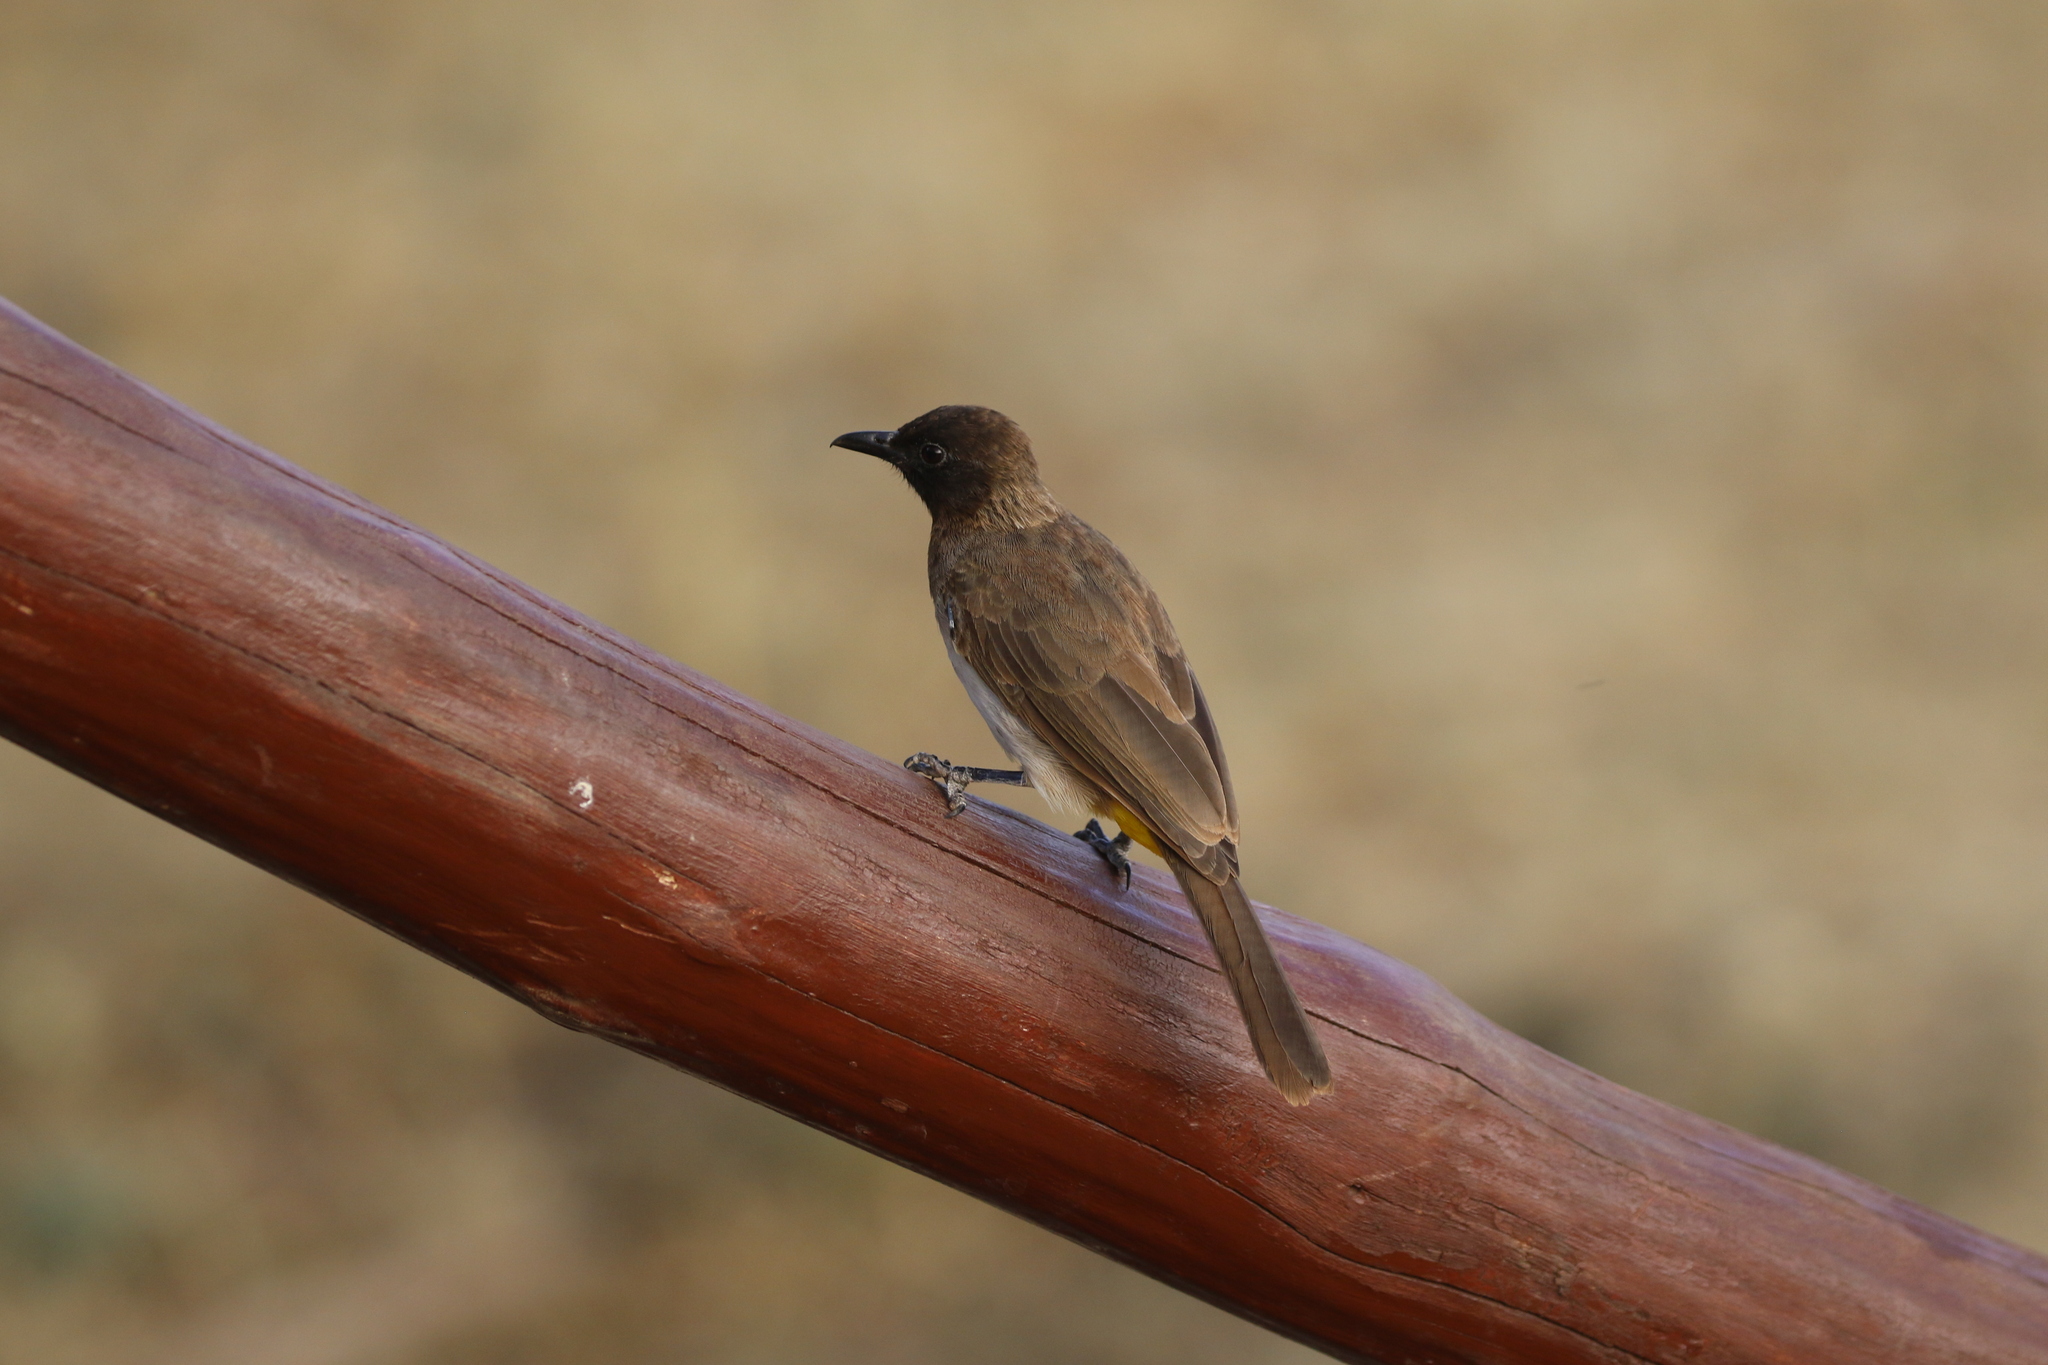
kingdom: Animalia
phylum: Chordata
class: Aves
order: Passeriformes
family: Pycnonotidae
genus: Pycnonotus
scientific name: Pycnonotus barbatus
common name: Common bulbul
